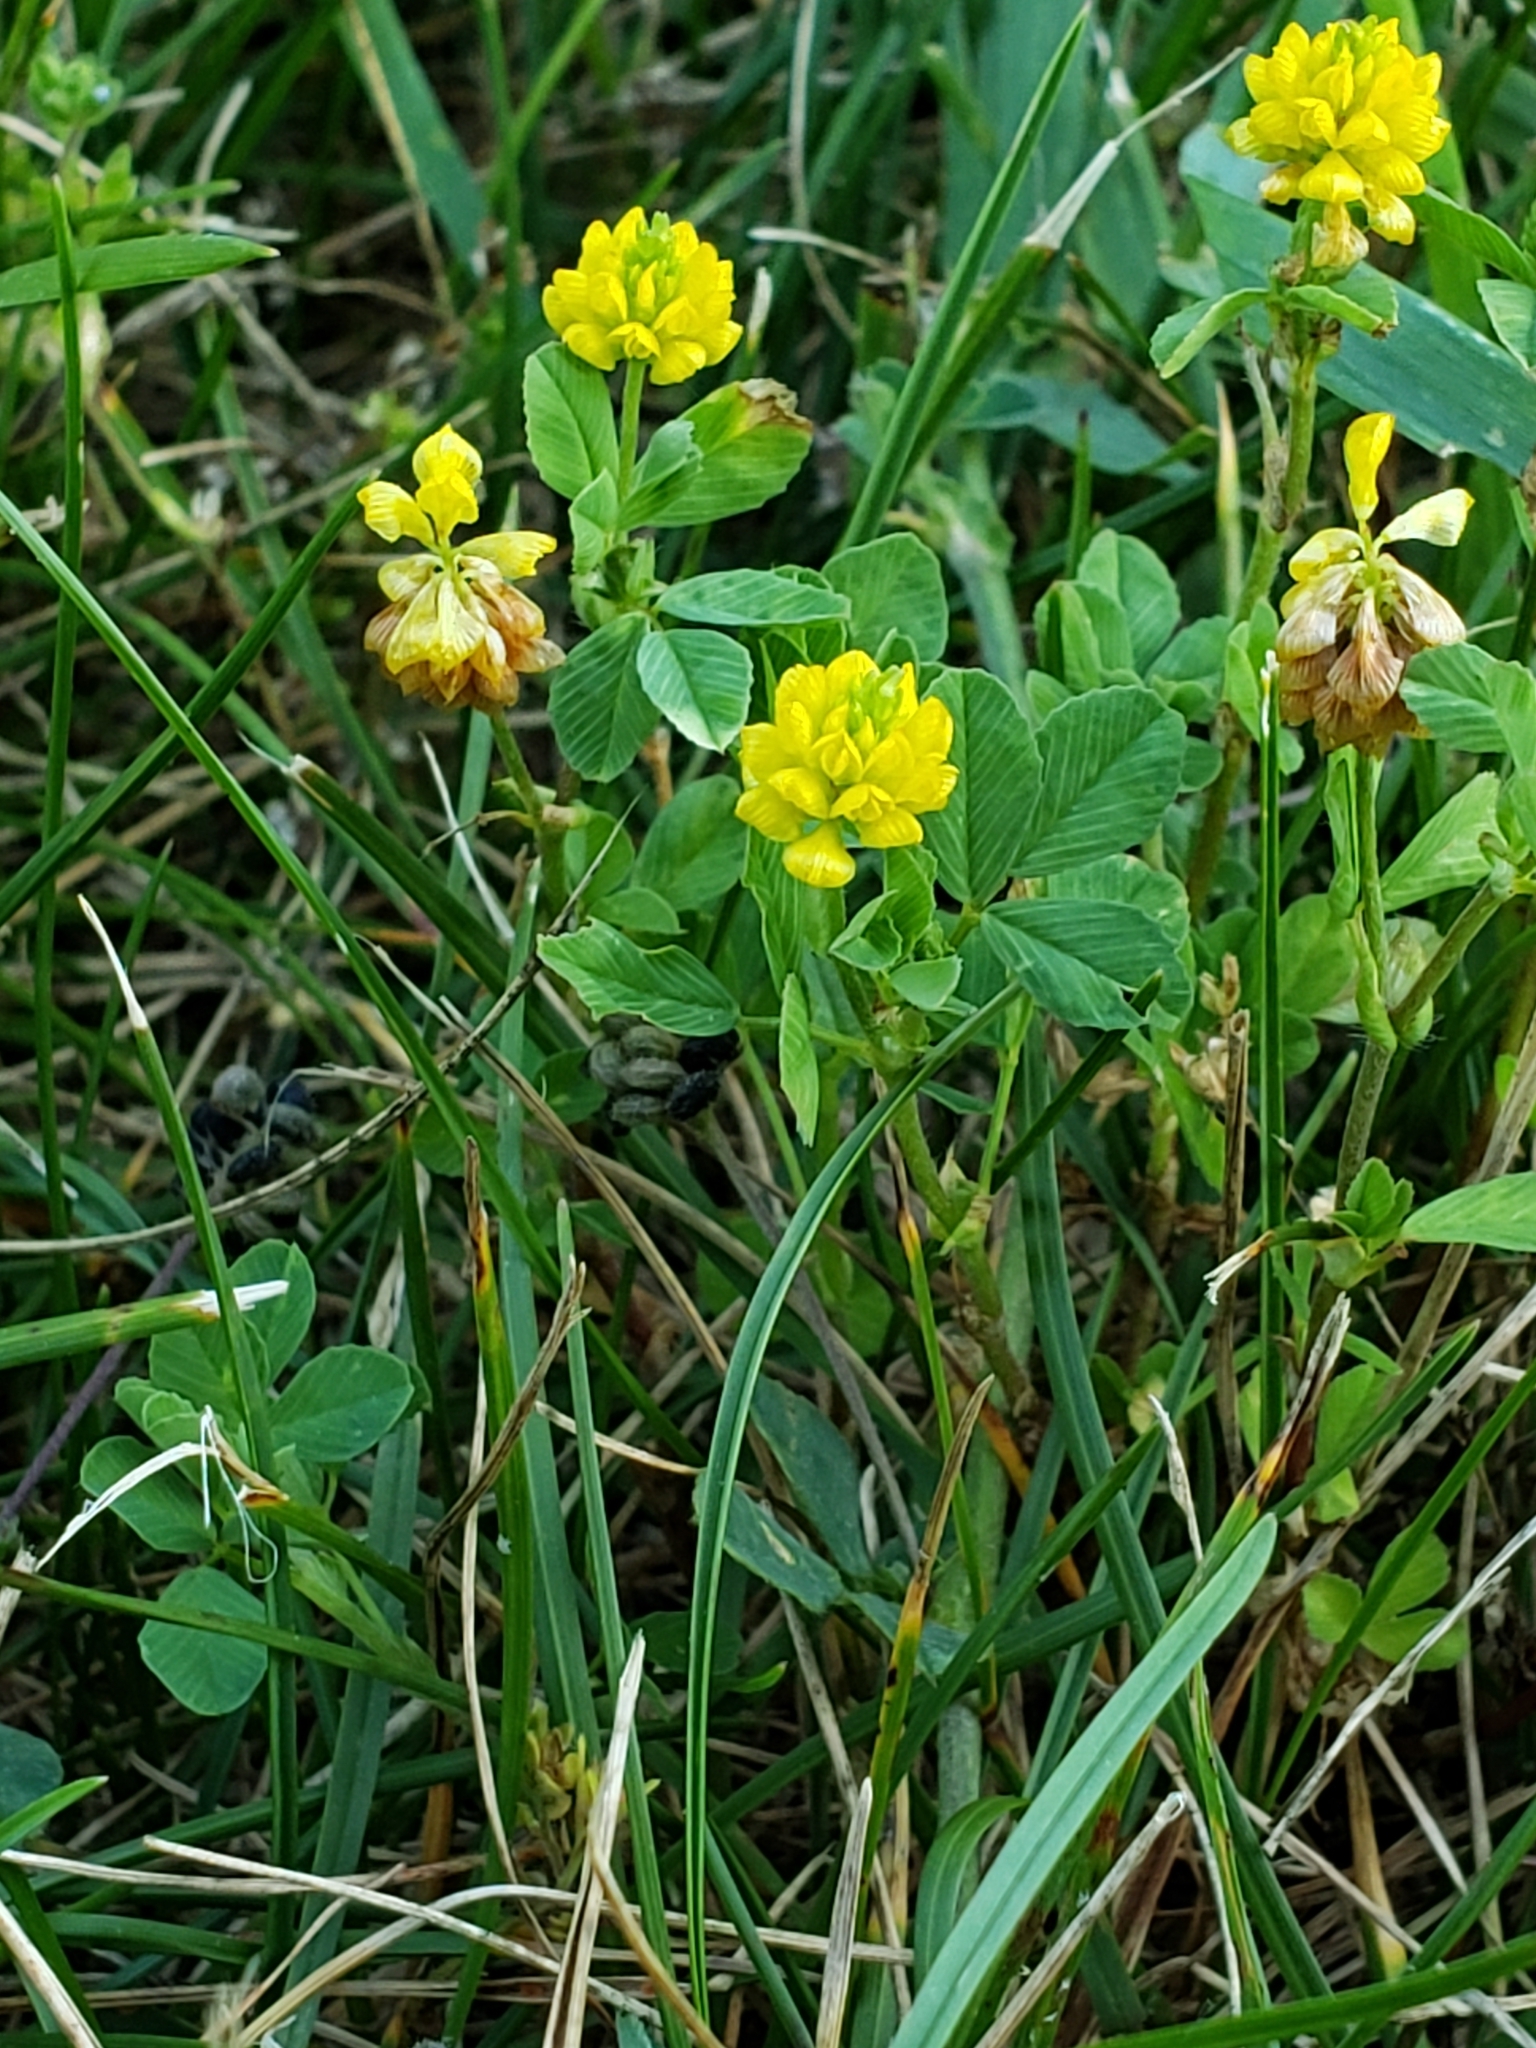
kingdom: Plantae
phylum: Tracheophyta
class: Magnoliopsida
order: Fabales
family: Fabaceae
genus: Trifolium
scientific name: Trifolium campestre
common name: Field clover
